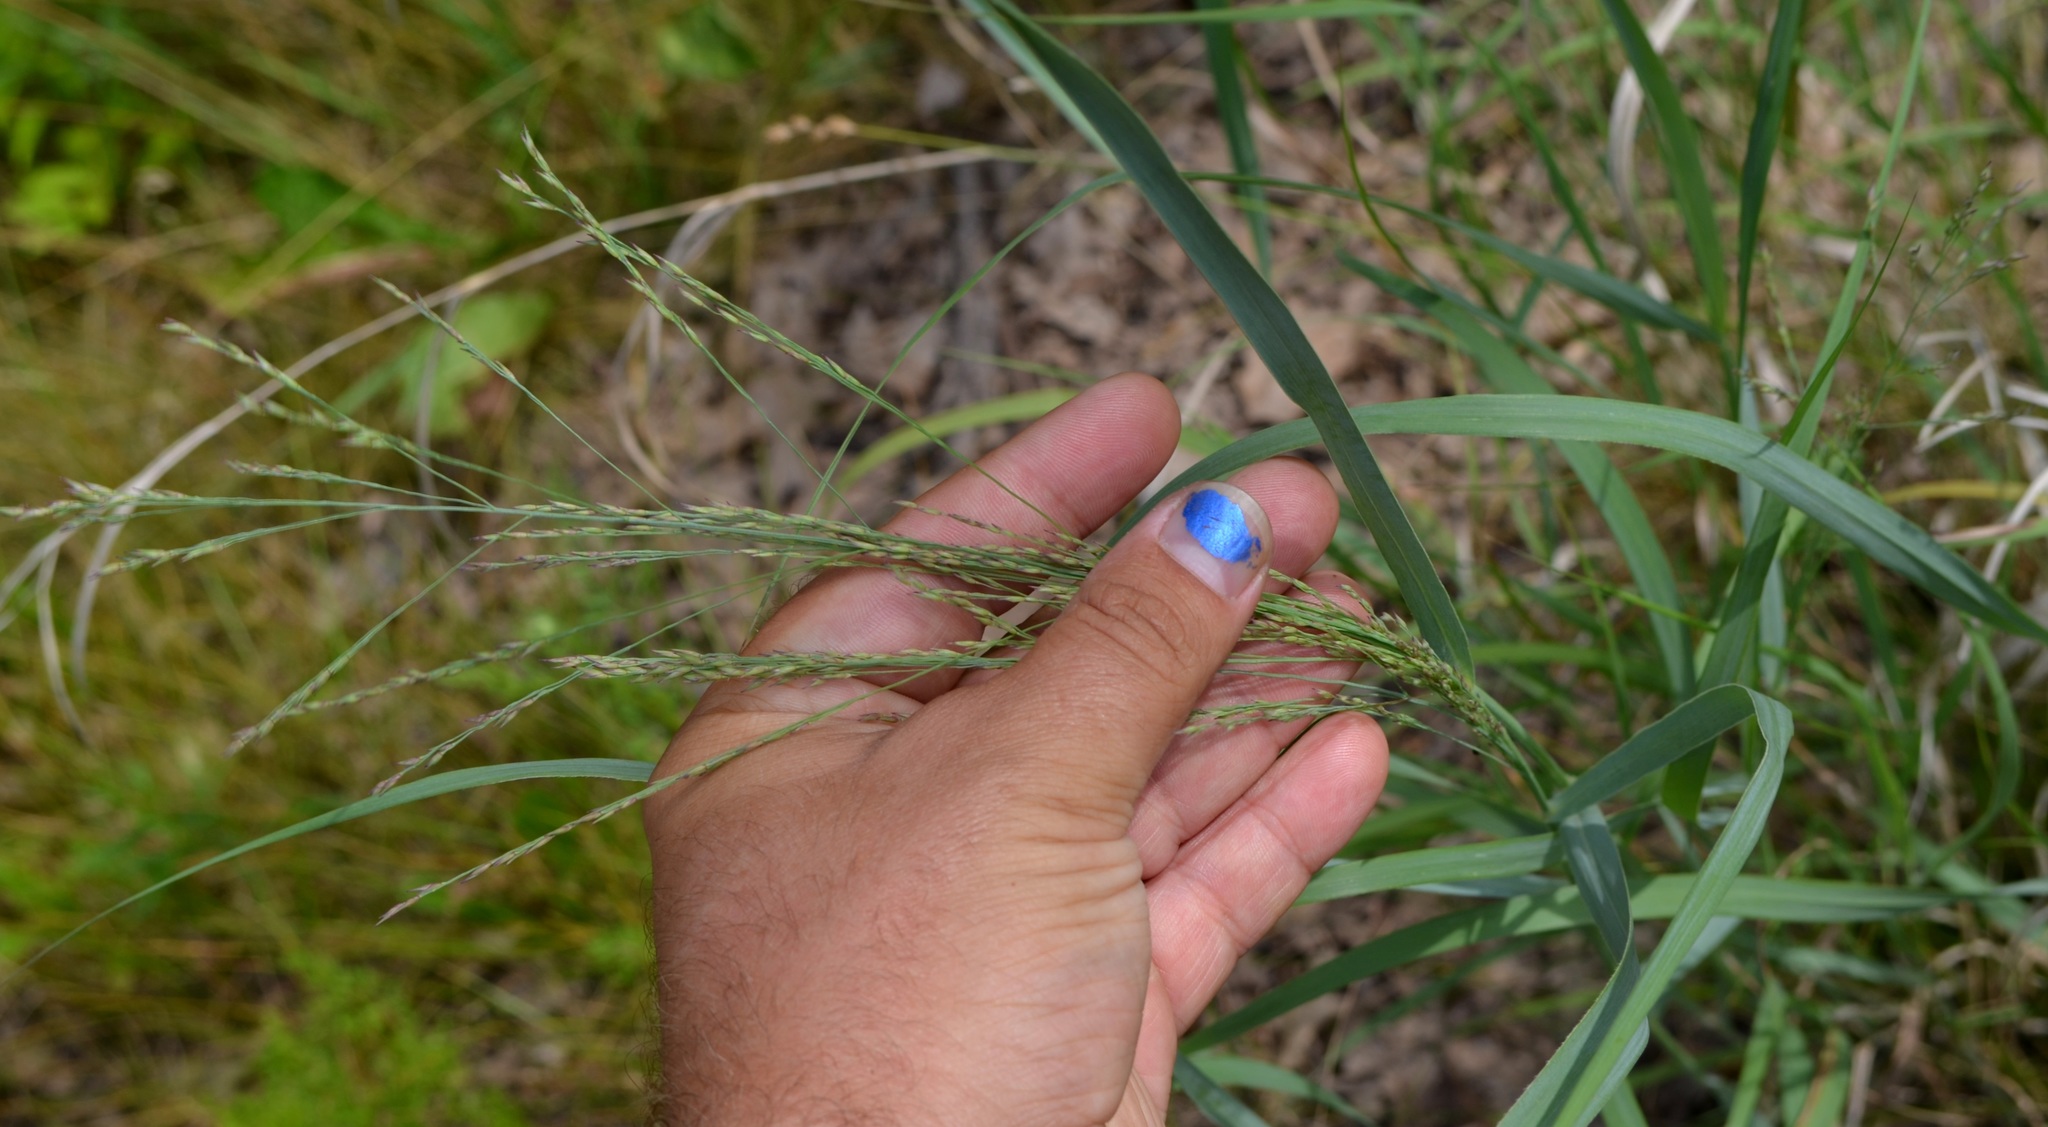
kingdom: Plantae
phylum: Tracheophyta
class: Liliopsida
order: Poales
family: Poaceae
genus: Panicum
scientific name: Panicum virgatum
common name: Switchgrass
